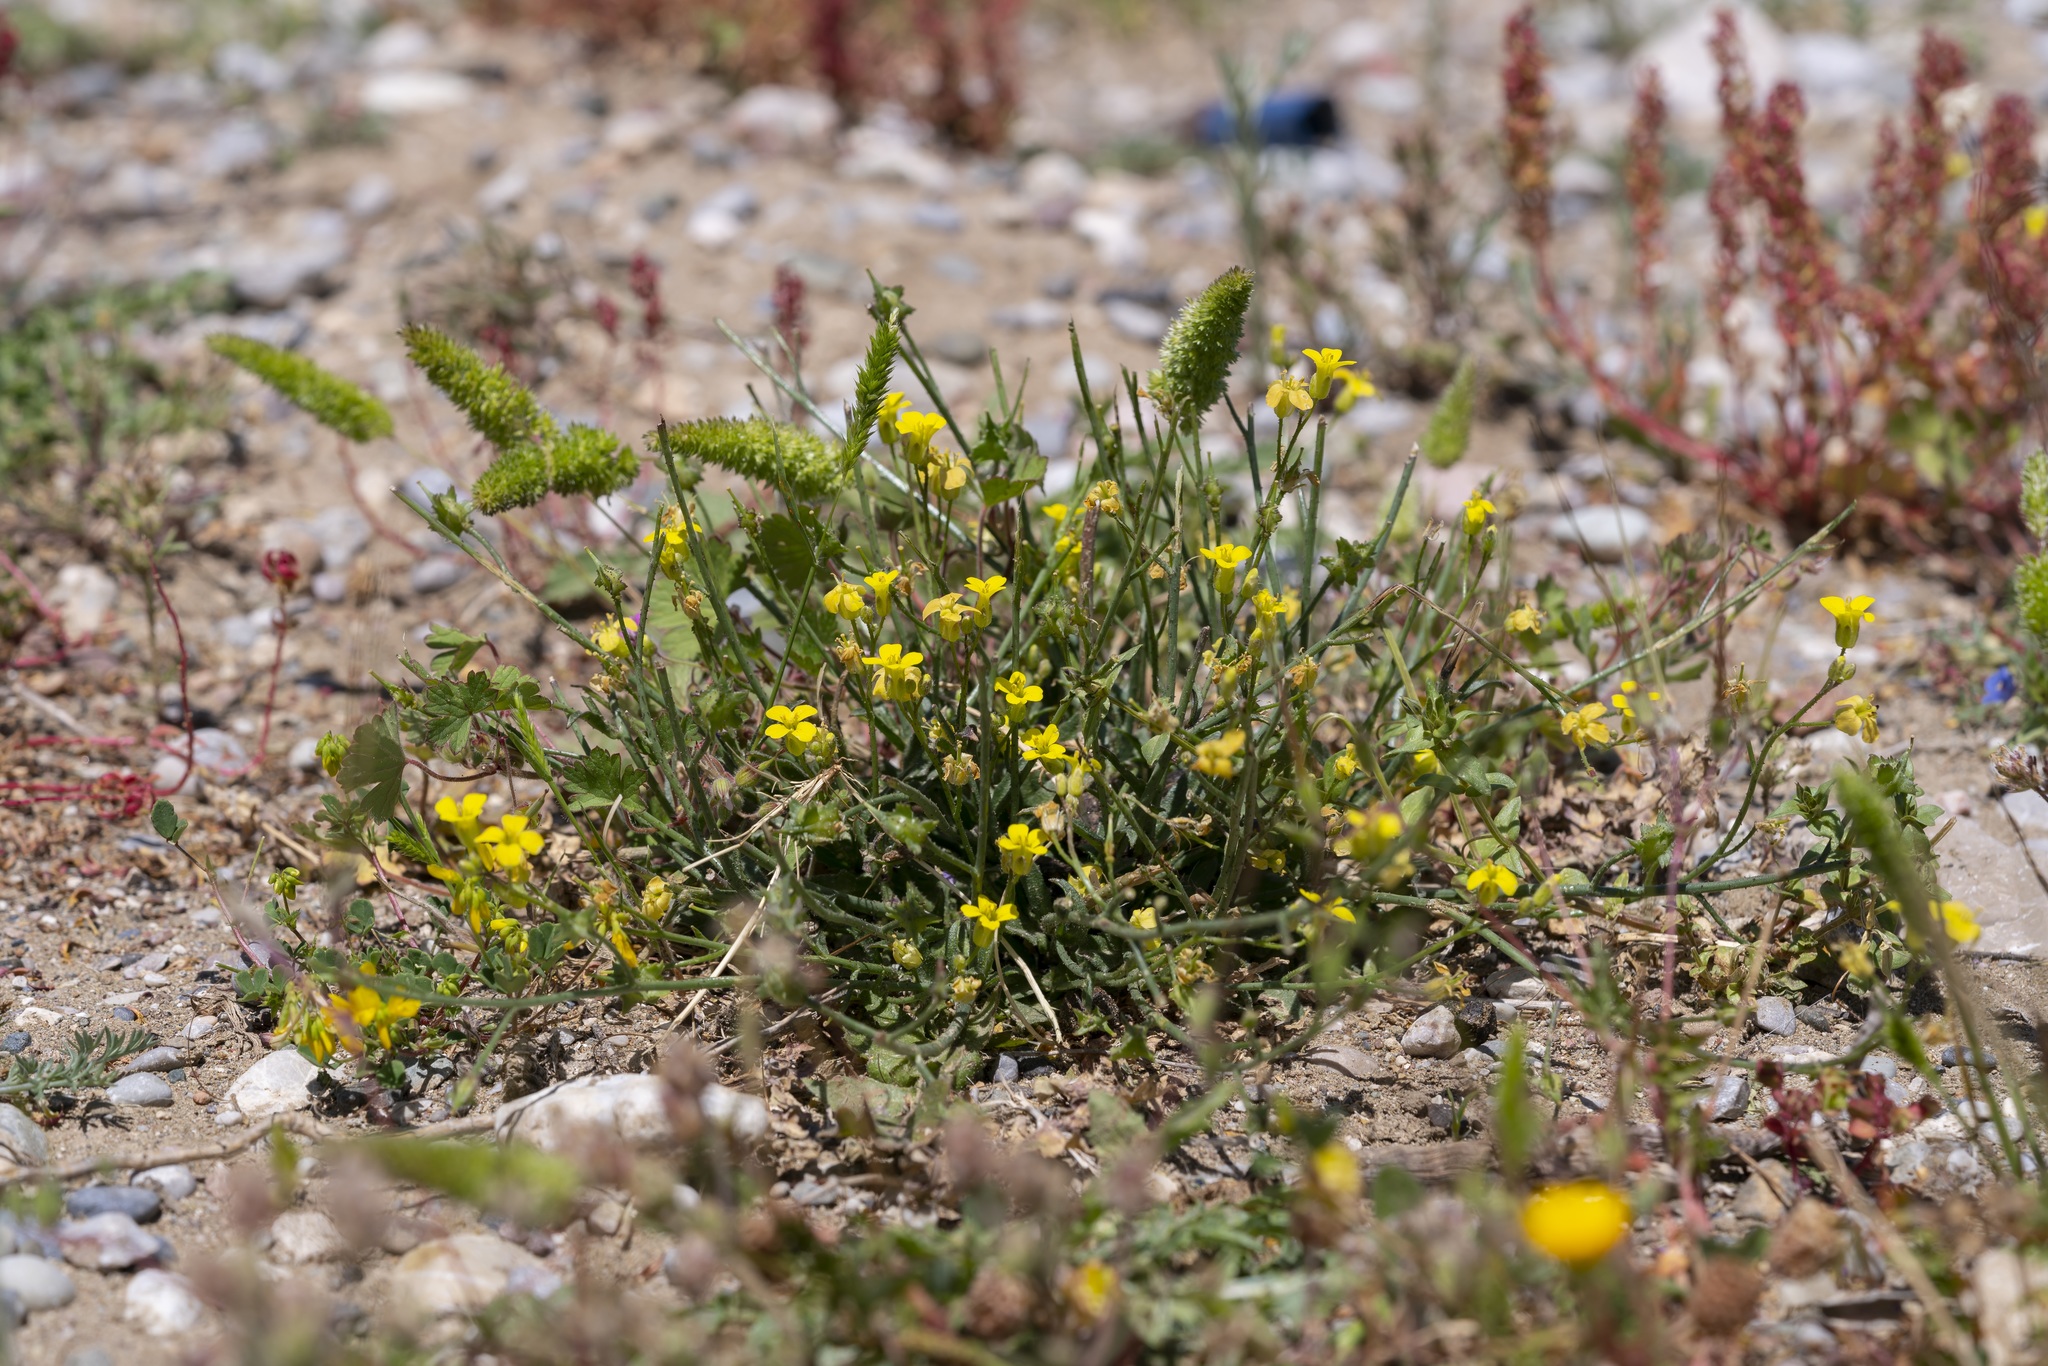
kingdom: Plantae
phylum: Tracheophyta
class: Magnoliopsida
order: Brassicales
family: Brassicaceae
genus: Bunias
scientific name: Bunias erucago
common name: Southern warty-cabbage
